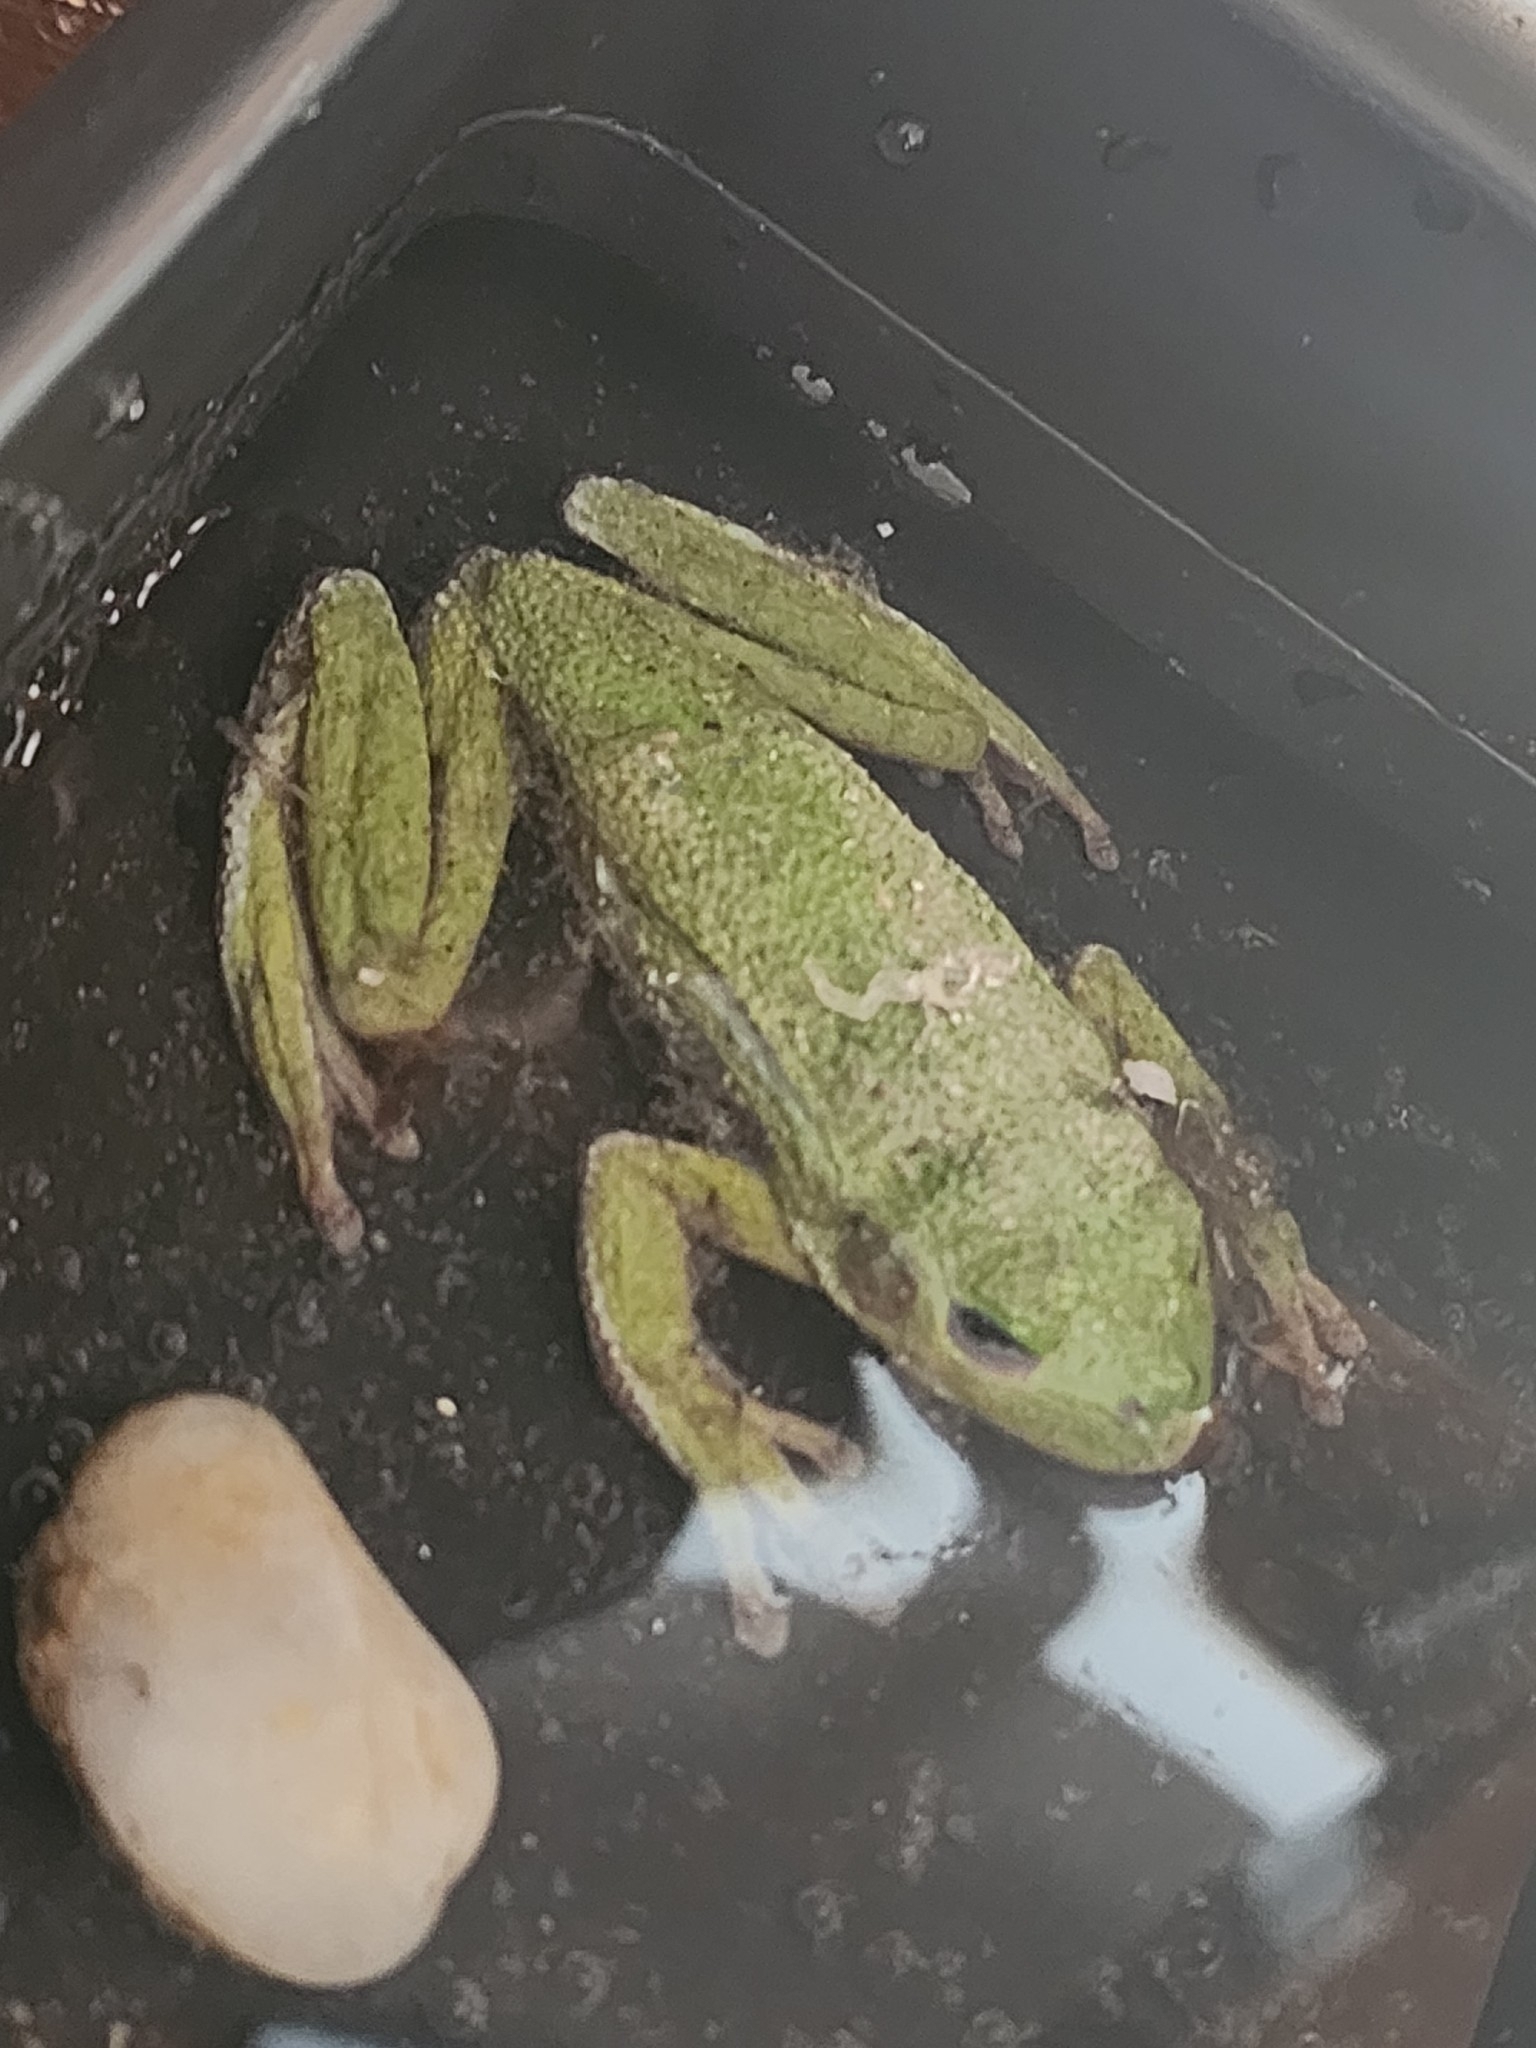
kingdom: Animalia
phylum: Chordata
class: Amphibia
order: Anura
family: Hylidae
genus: Dryophytes
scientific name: Dryophytes gratiosus
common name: Barking treefrog
